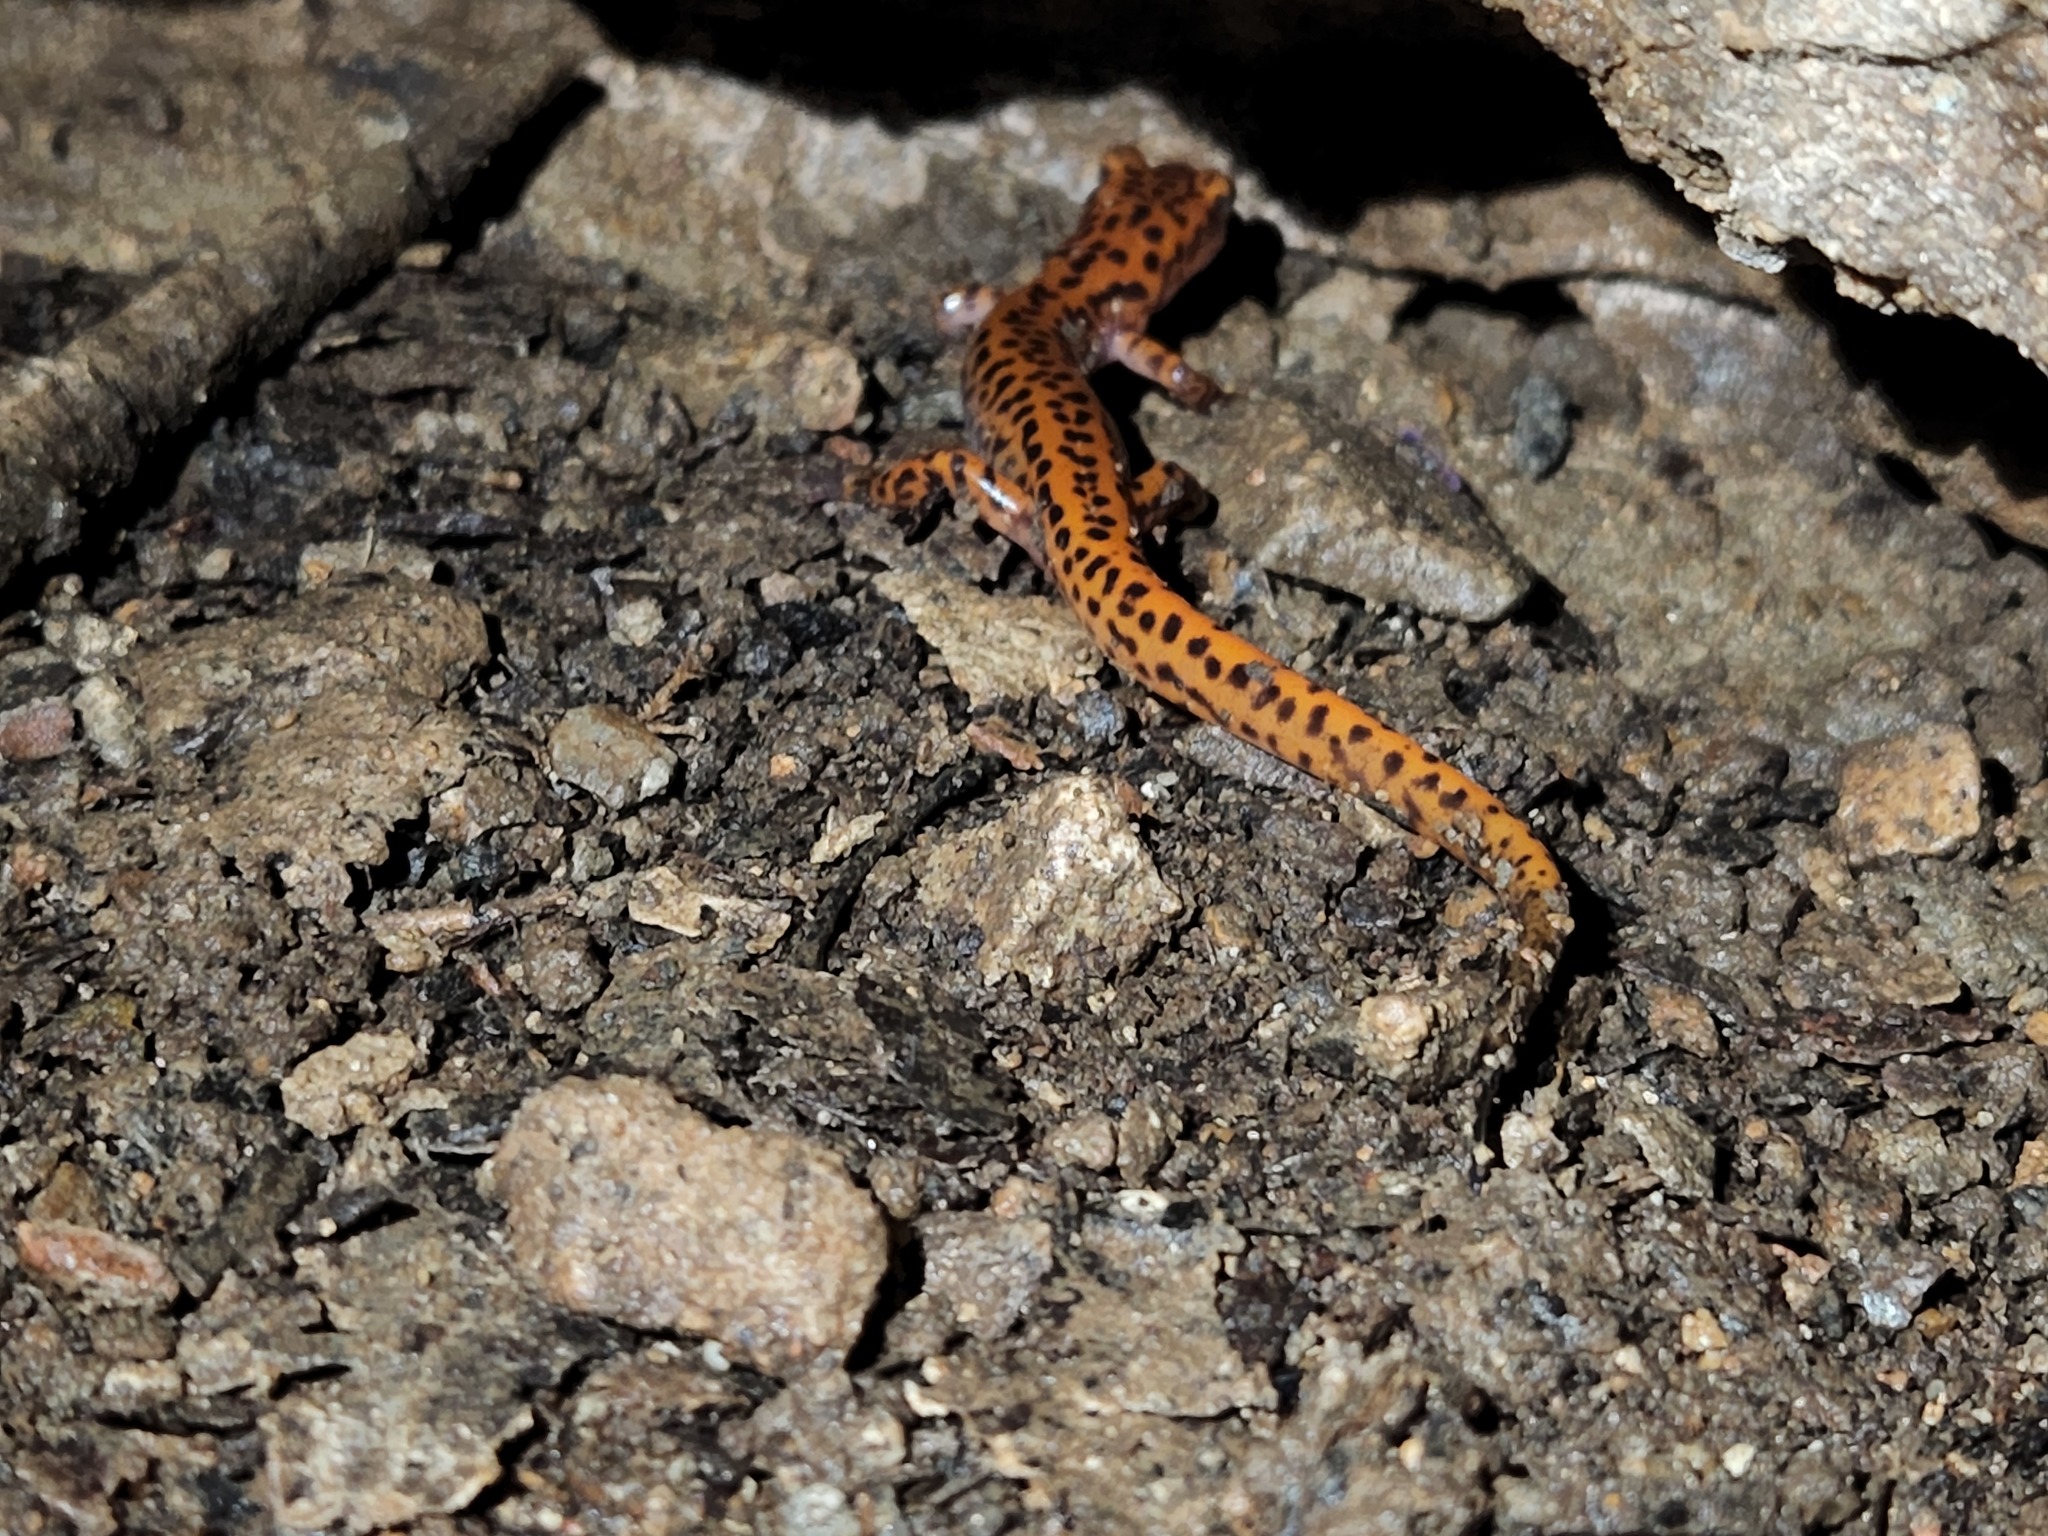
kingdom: Animalia
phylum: Chordata
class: Amphibia
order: Caudata
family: Plethodontidae
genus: Eurycea
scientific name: Eurycea lucifuga
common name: Cave salamander
